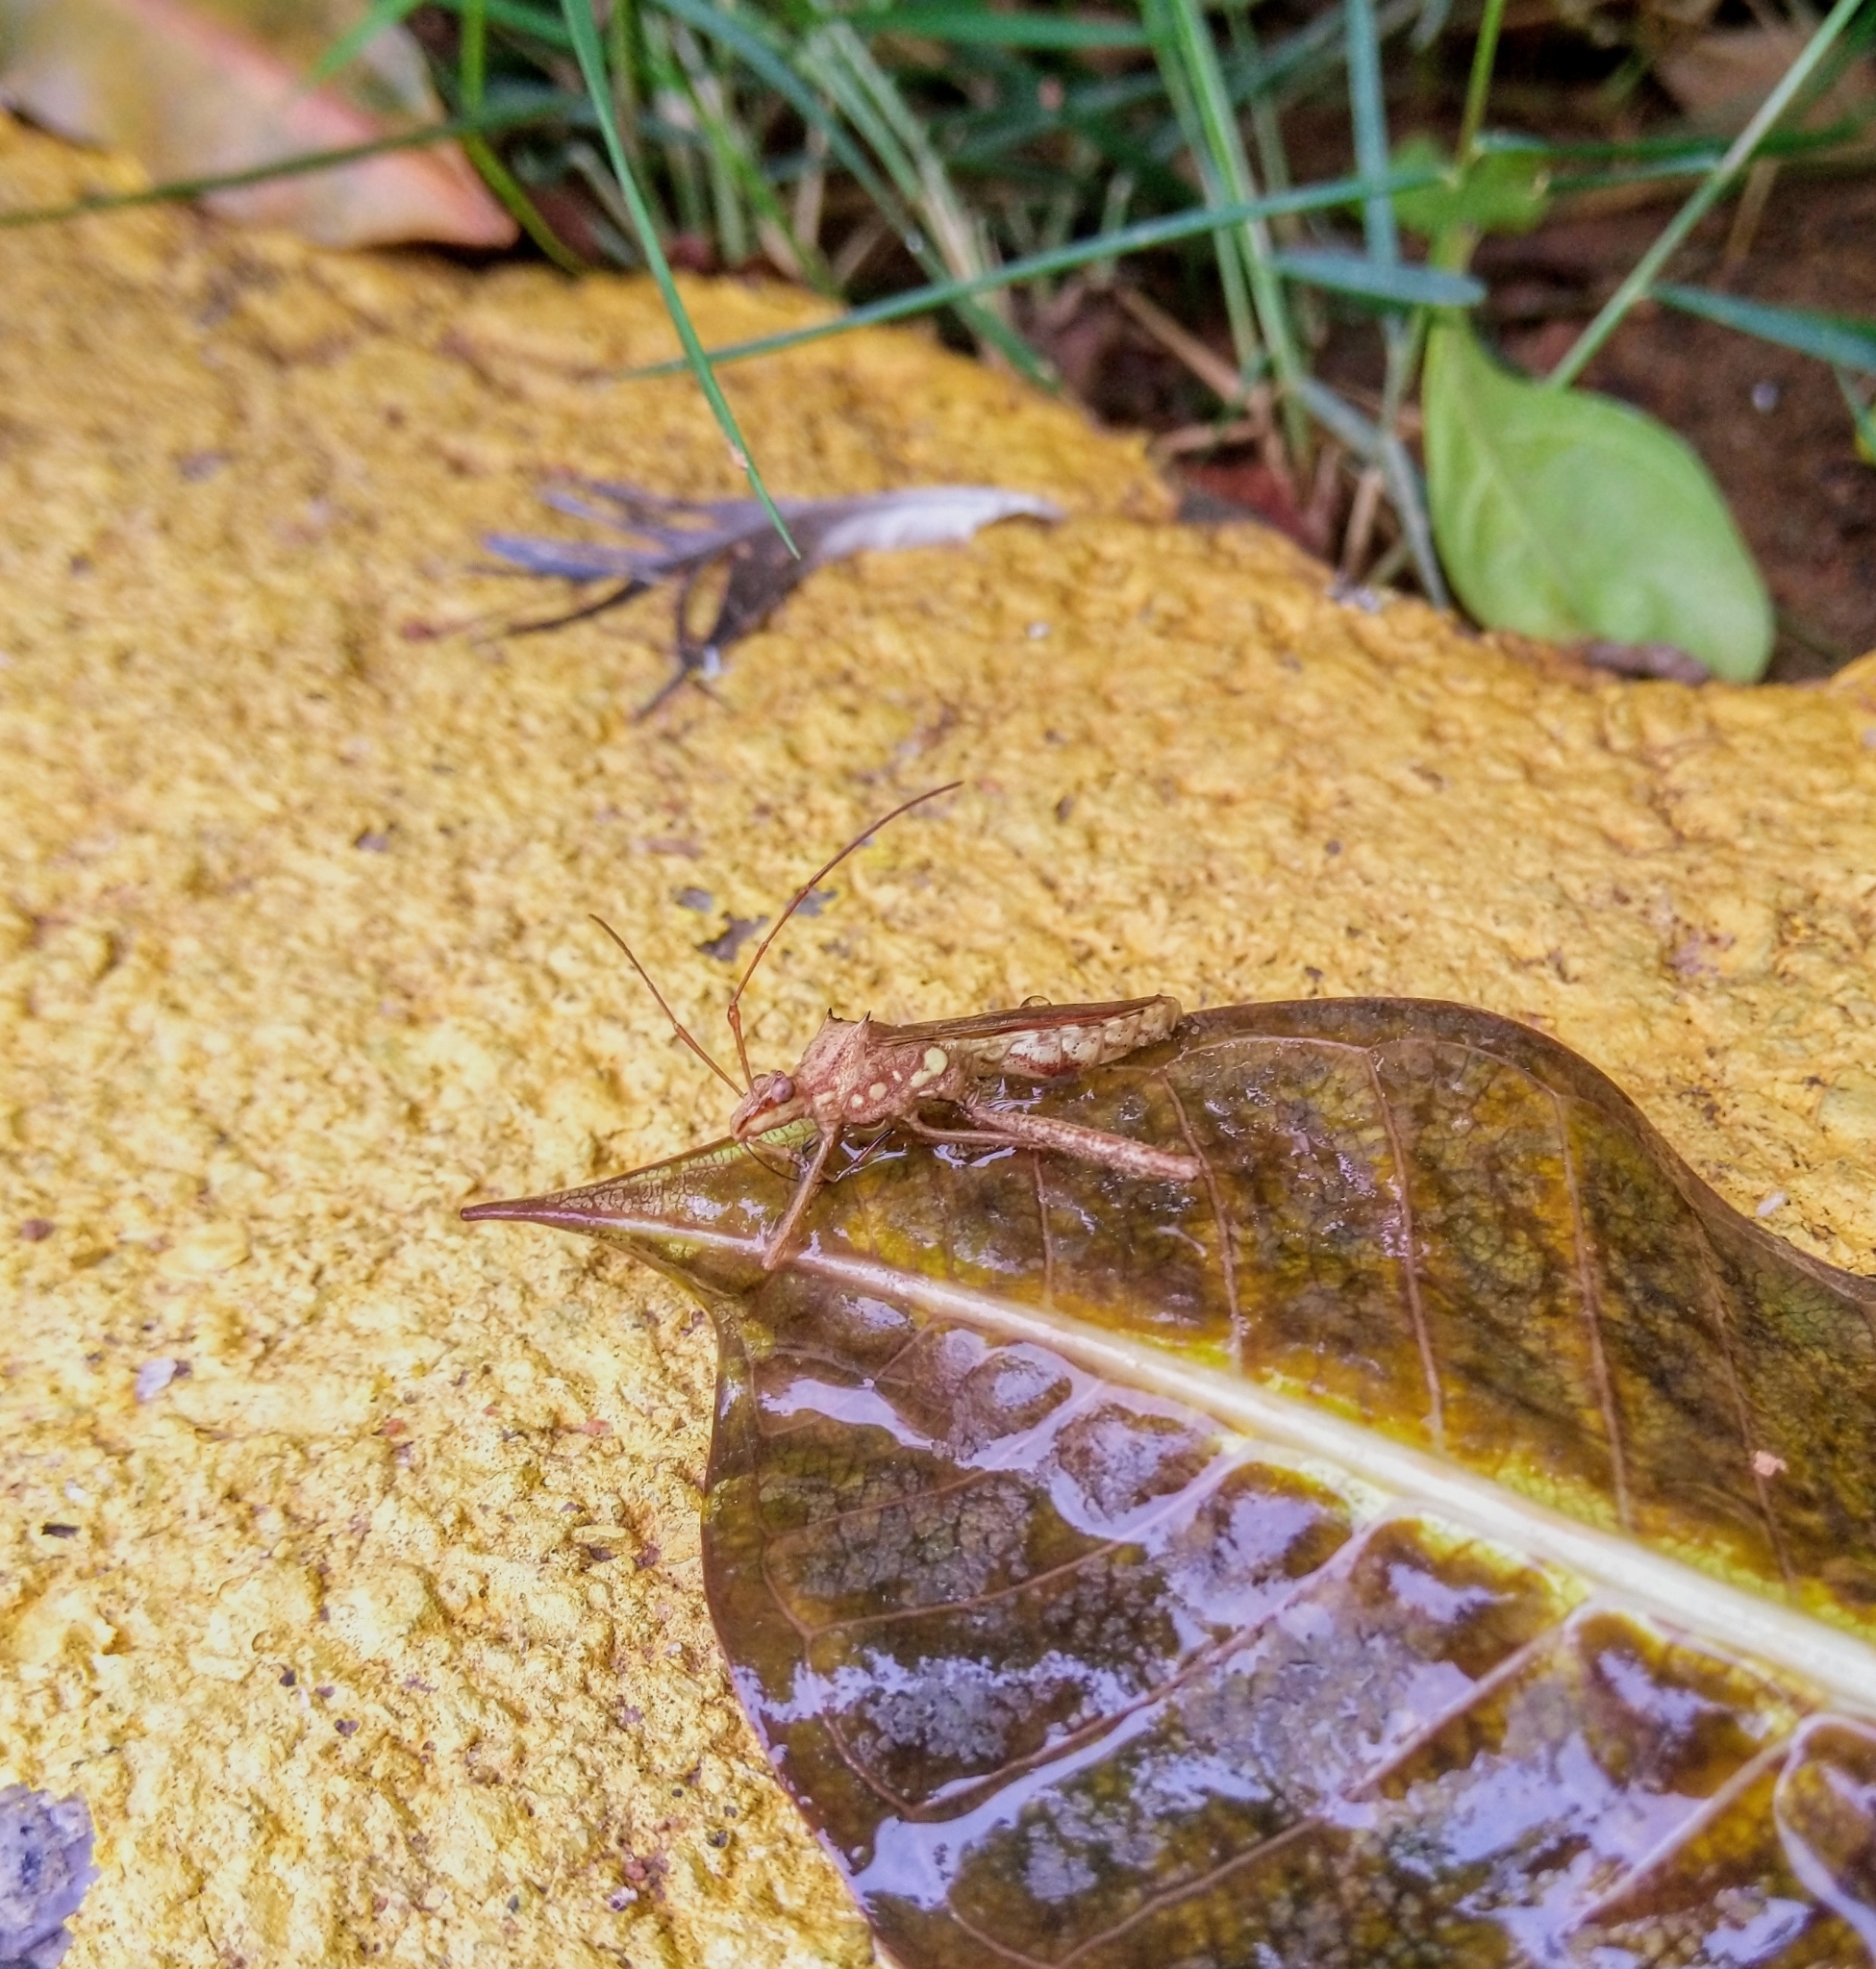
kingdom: Animalia
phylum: Arthropoda
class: Insecta
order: Hemiptera
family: Alydidae
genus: Riptortus
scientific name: Riptortus pedestris
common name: Bean bug
